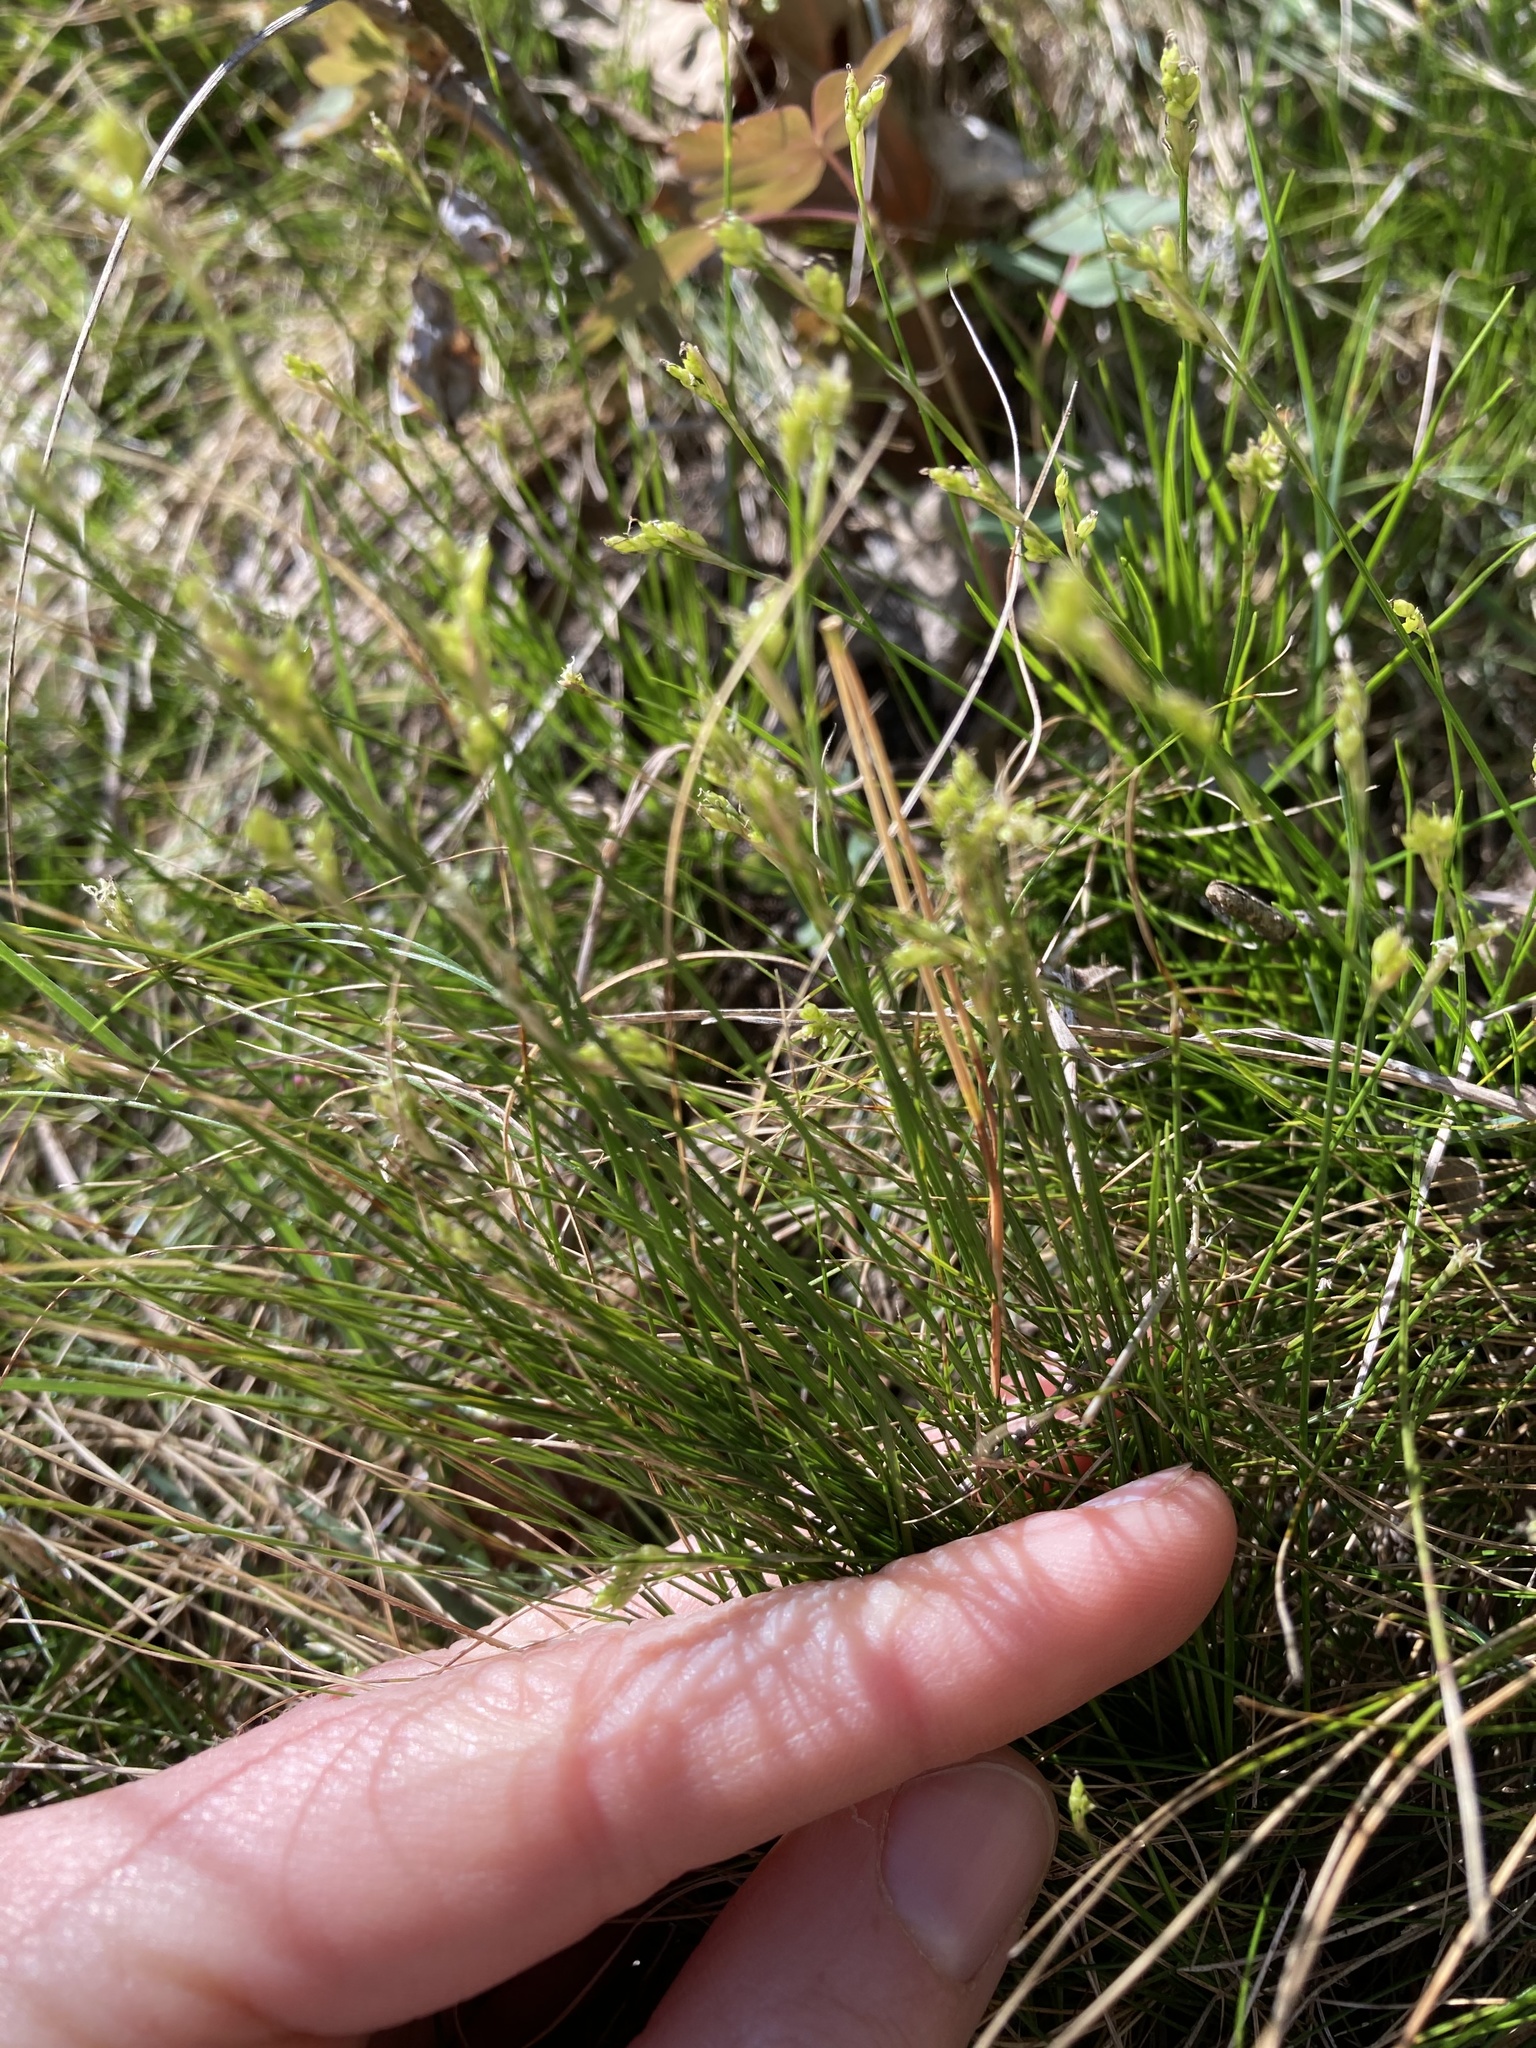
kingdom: Plantae
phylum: Tracheophyta
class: Liliopsida
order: Poales
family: Cyperaceae
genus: Carex
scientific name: Carex eburnea
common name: Bristle-leaved sedge
